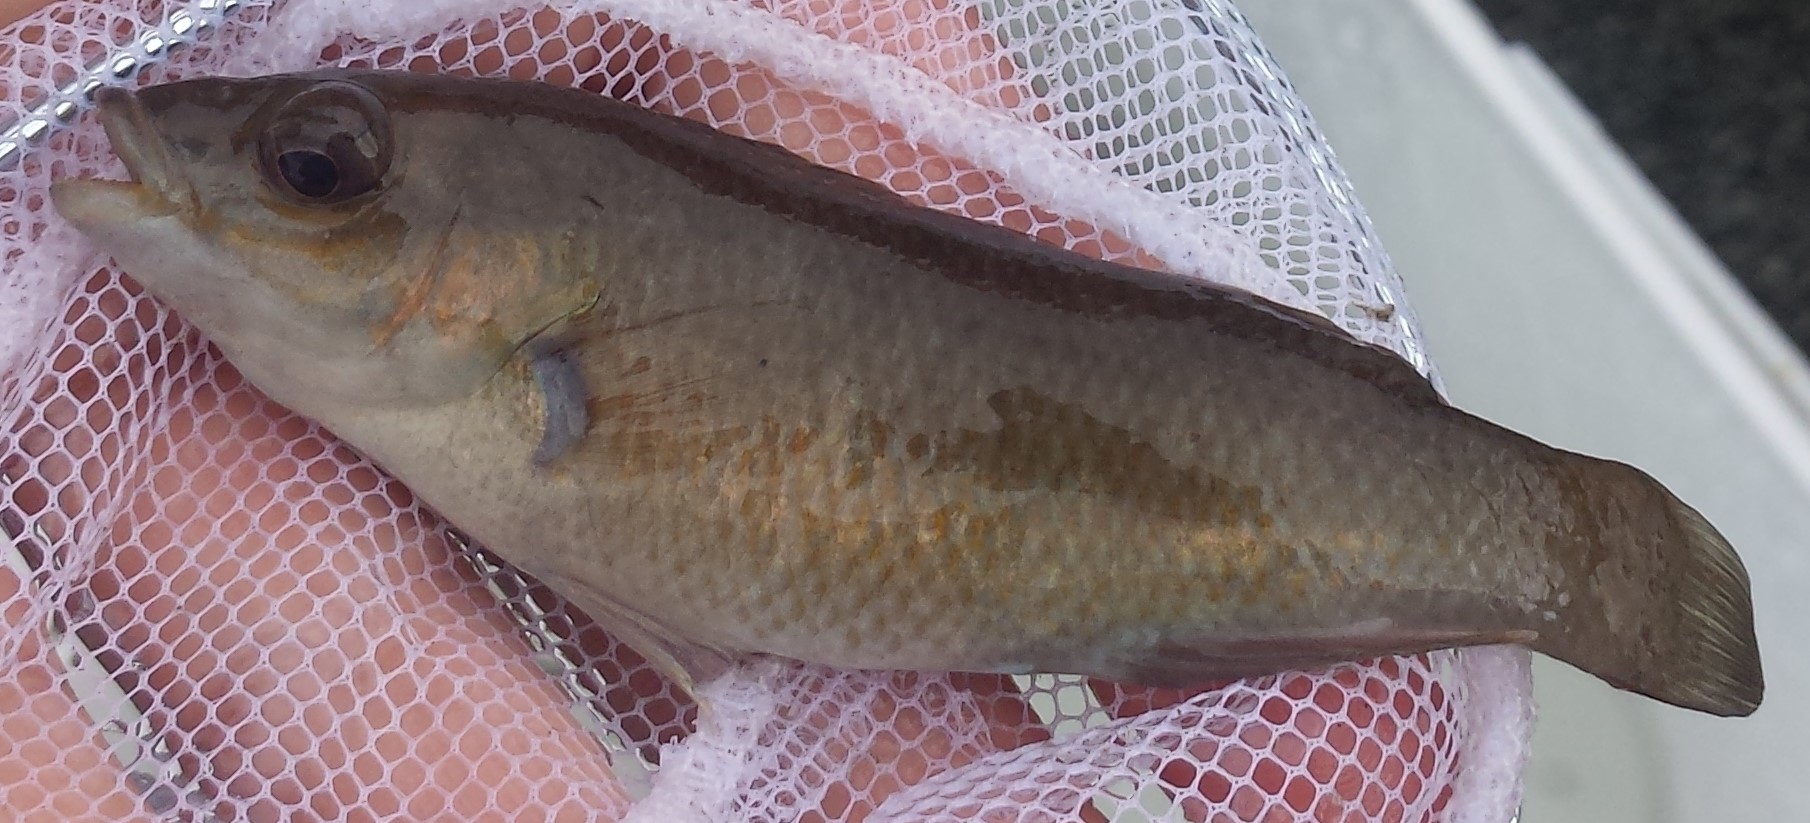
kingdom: Animalia
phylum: Chordata
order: Perciformes
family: Labridae
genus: Tautogolabrus
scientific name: Tautogolabrus adspersus
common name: Cunner
